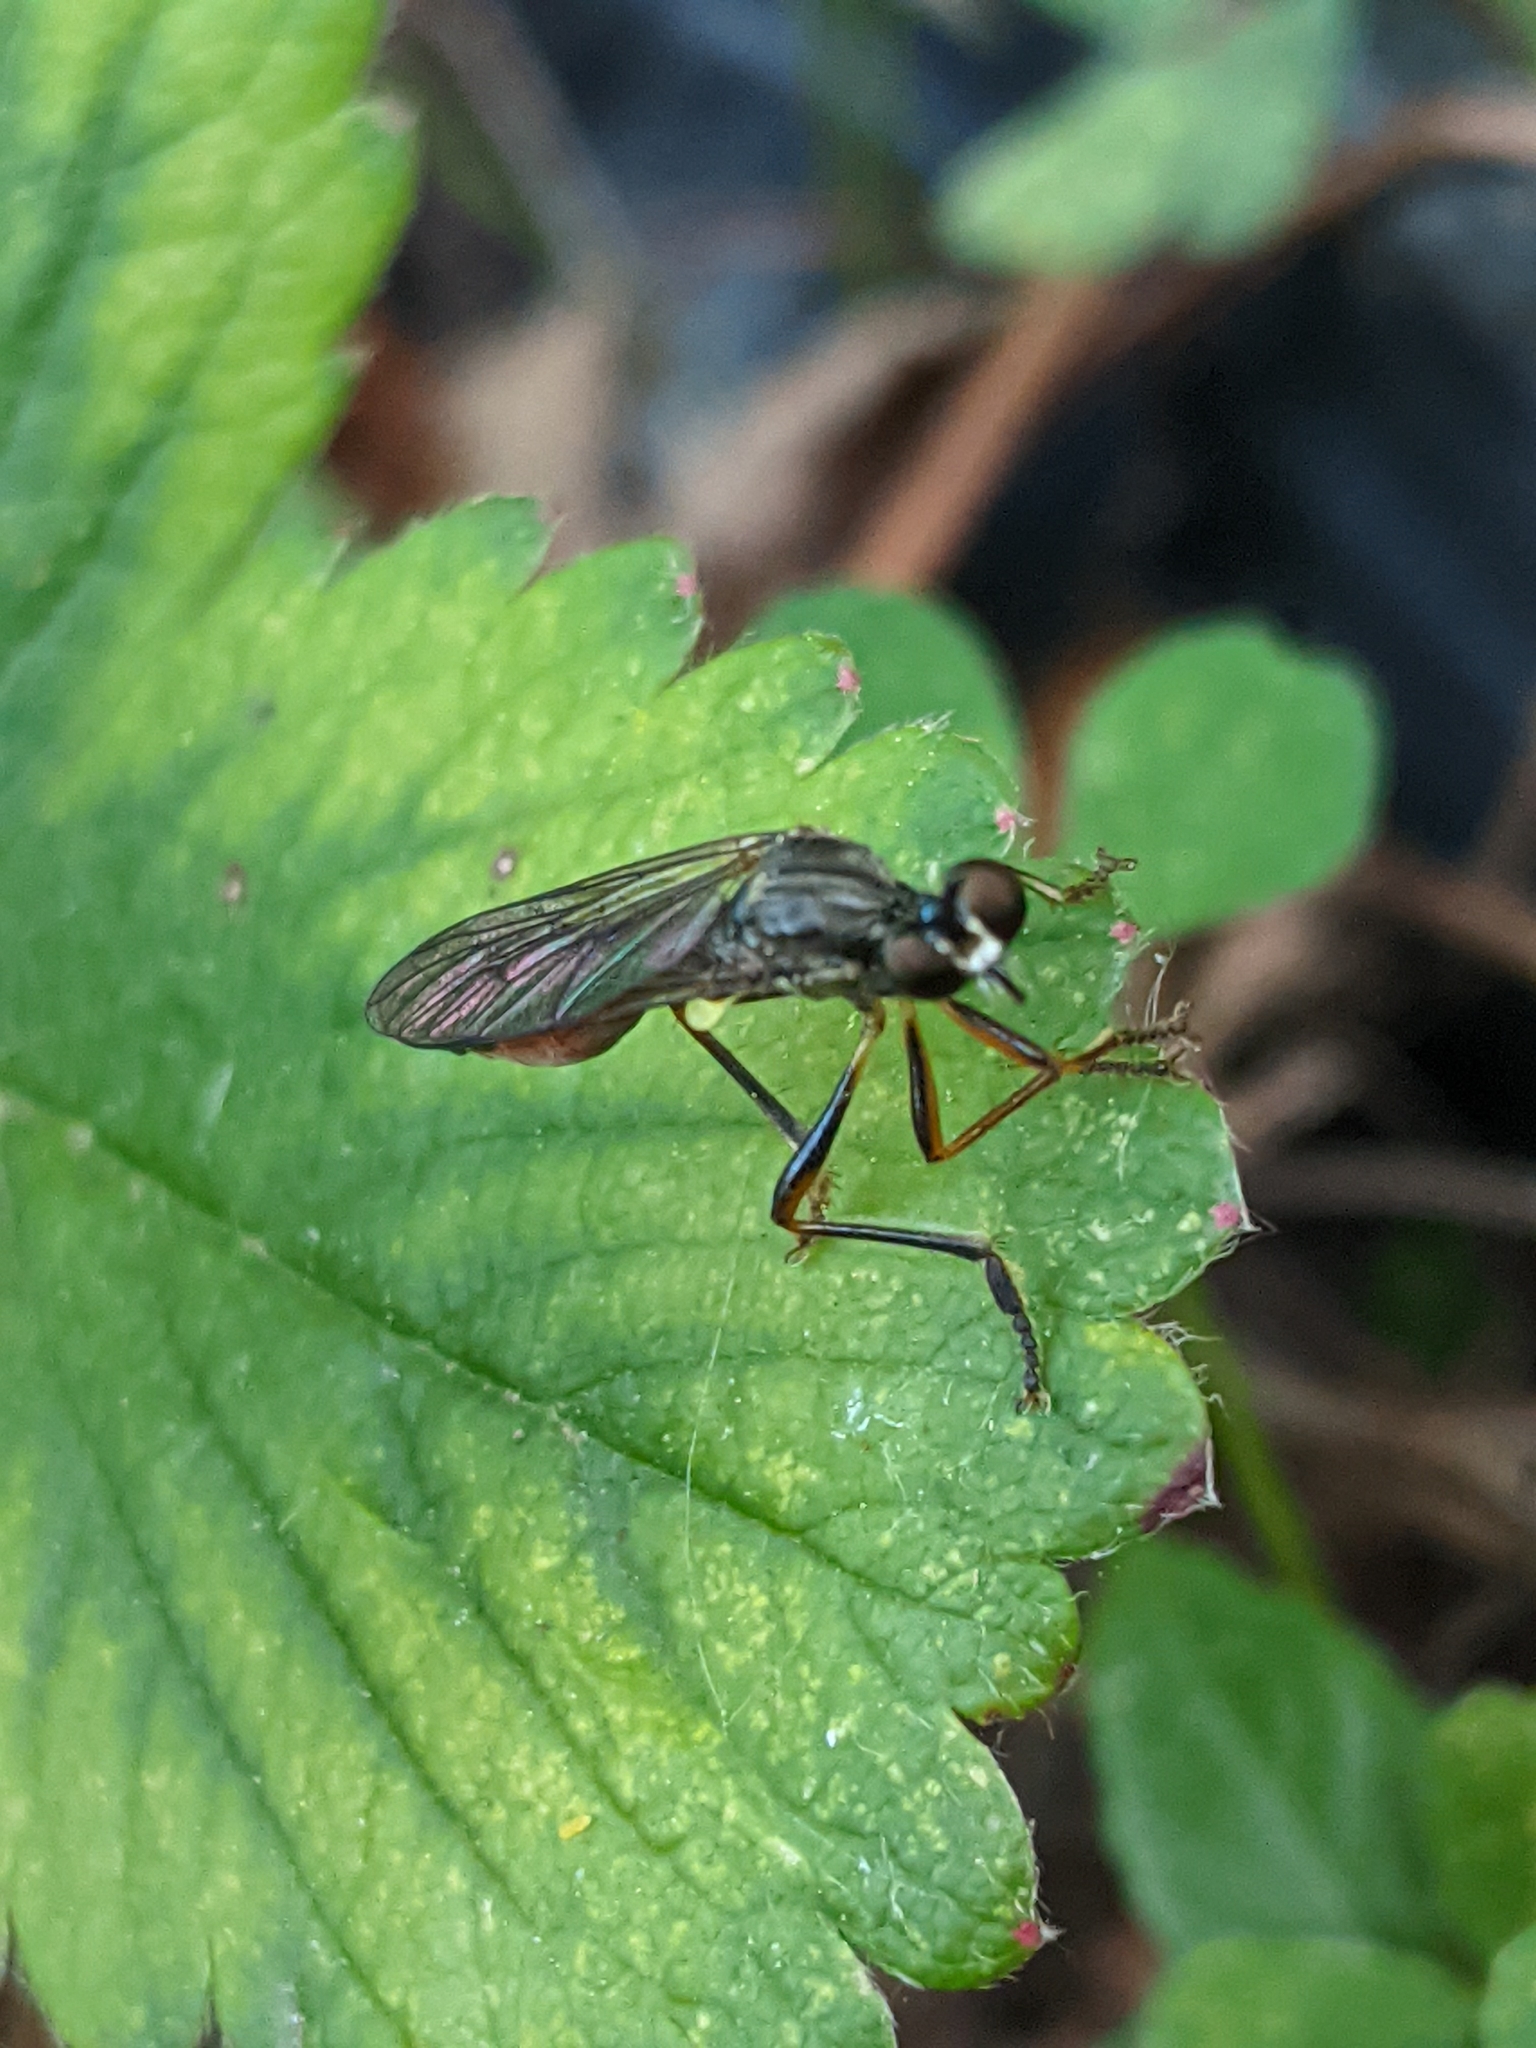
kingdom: Animalia
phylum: Arthropoda
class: Insecta
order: Diptera
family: Asilidae
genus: Dioctria
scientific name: Dioctria hyalipennis
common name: Stripe-legged robberfly
